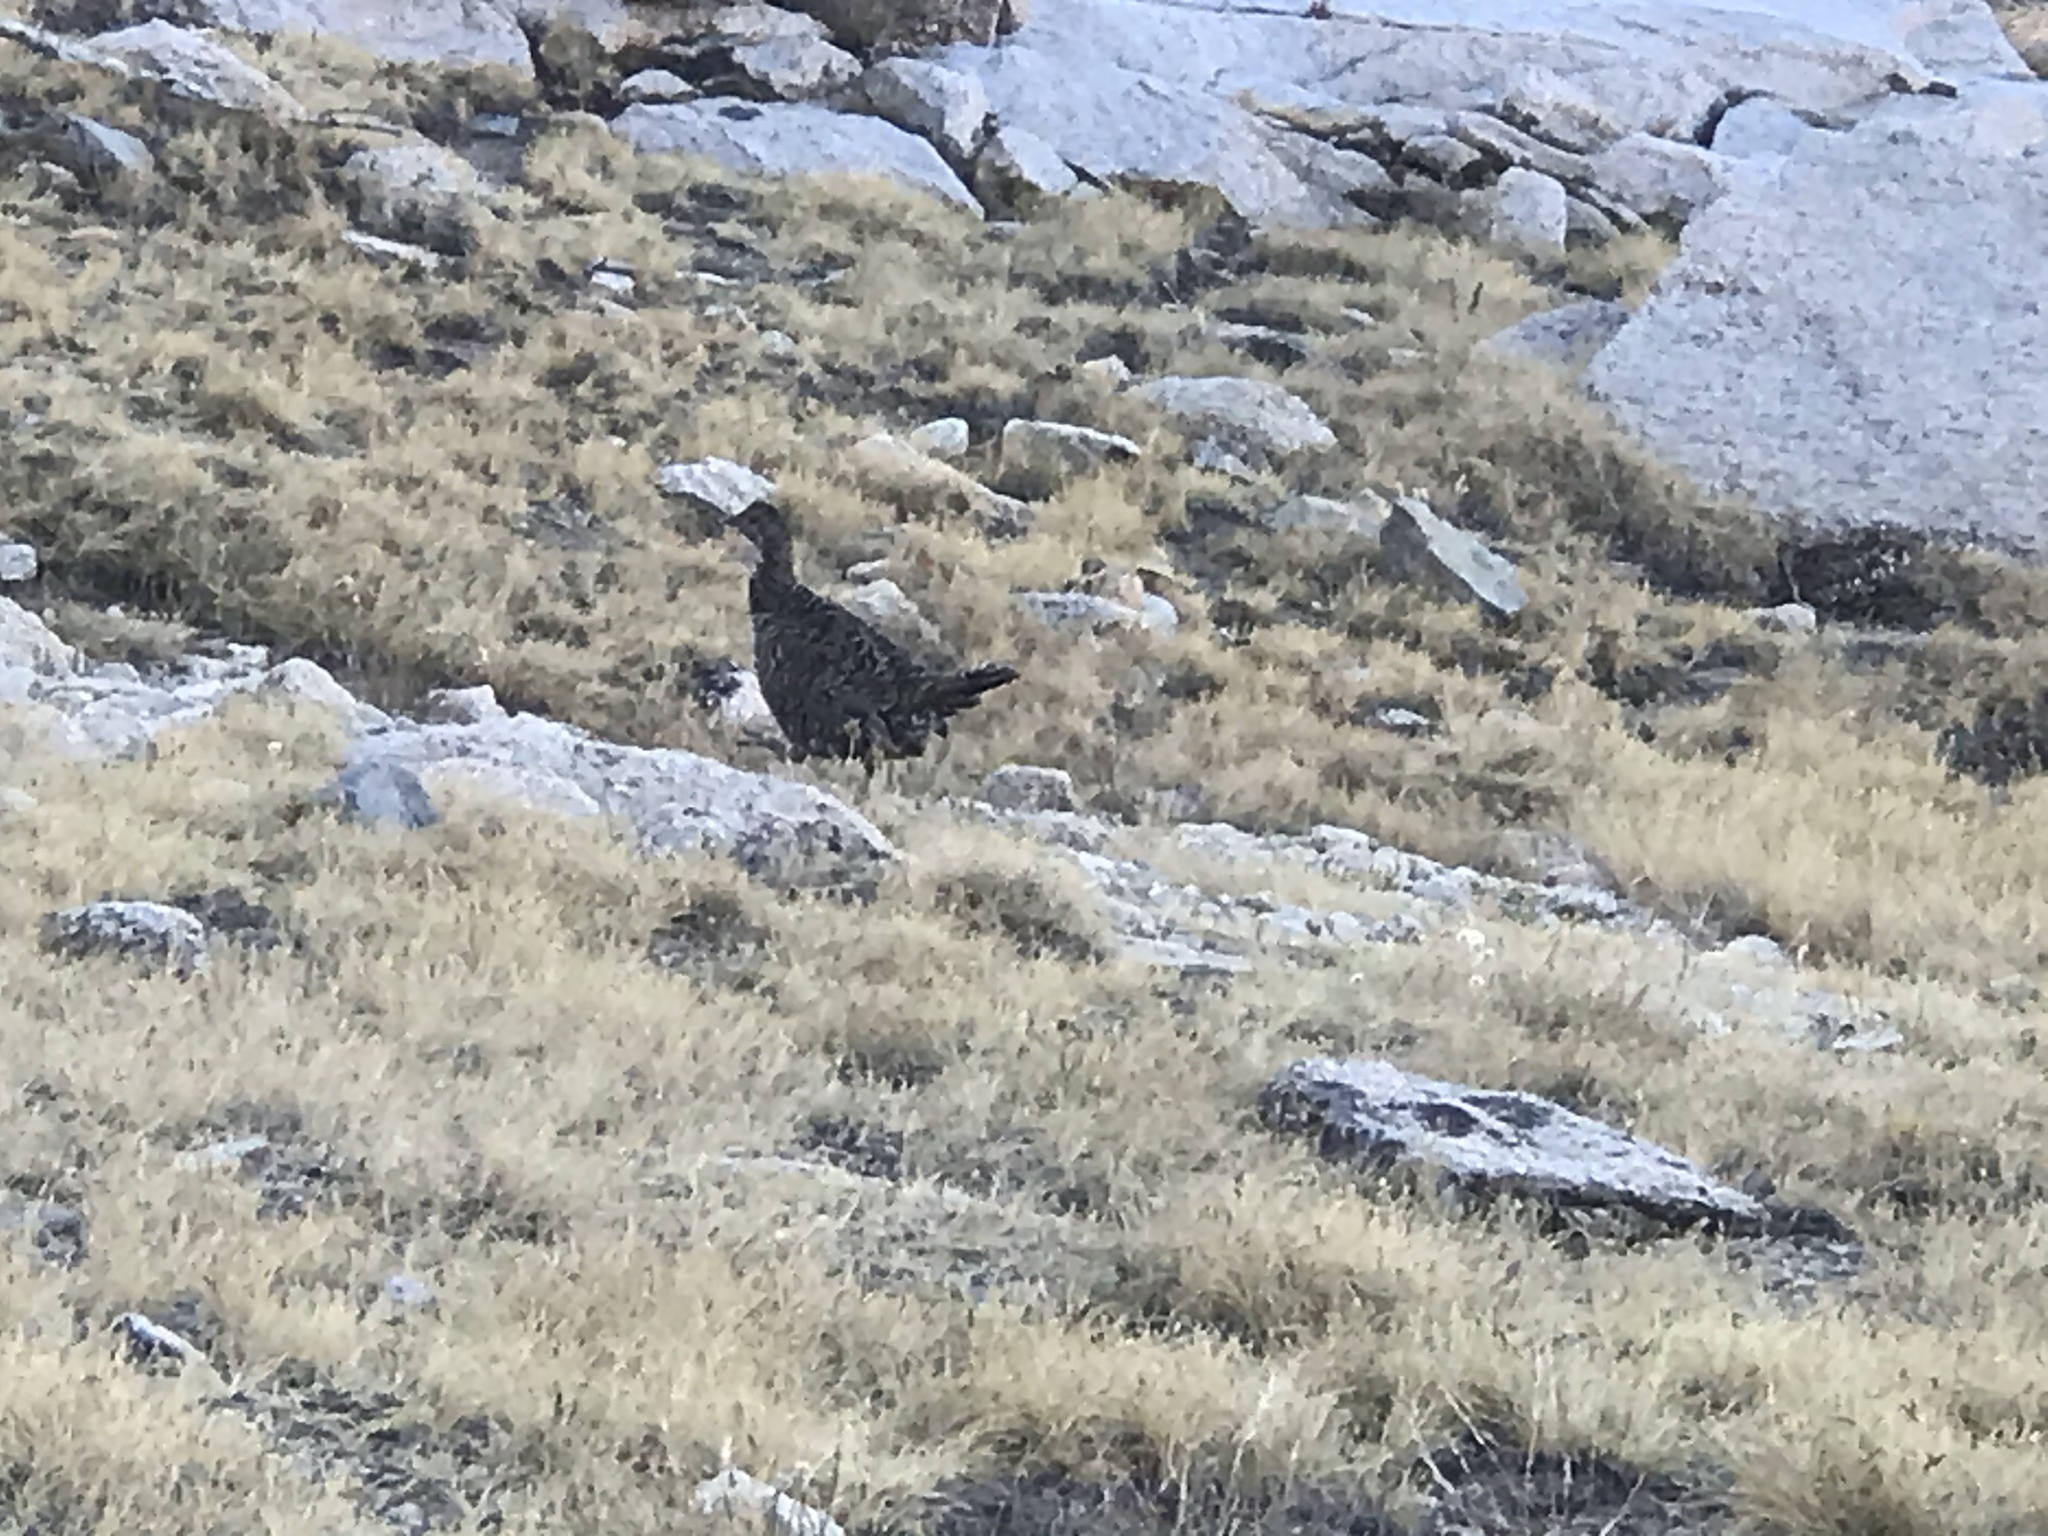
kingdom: Animalia
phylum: Chordata
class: Aves
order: Galliformes
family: Phasianidae
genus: Dendragapus
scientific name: Dendragapus fuliginosus
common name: Sooty grouse
